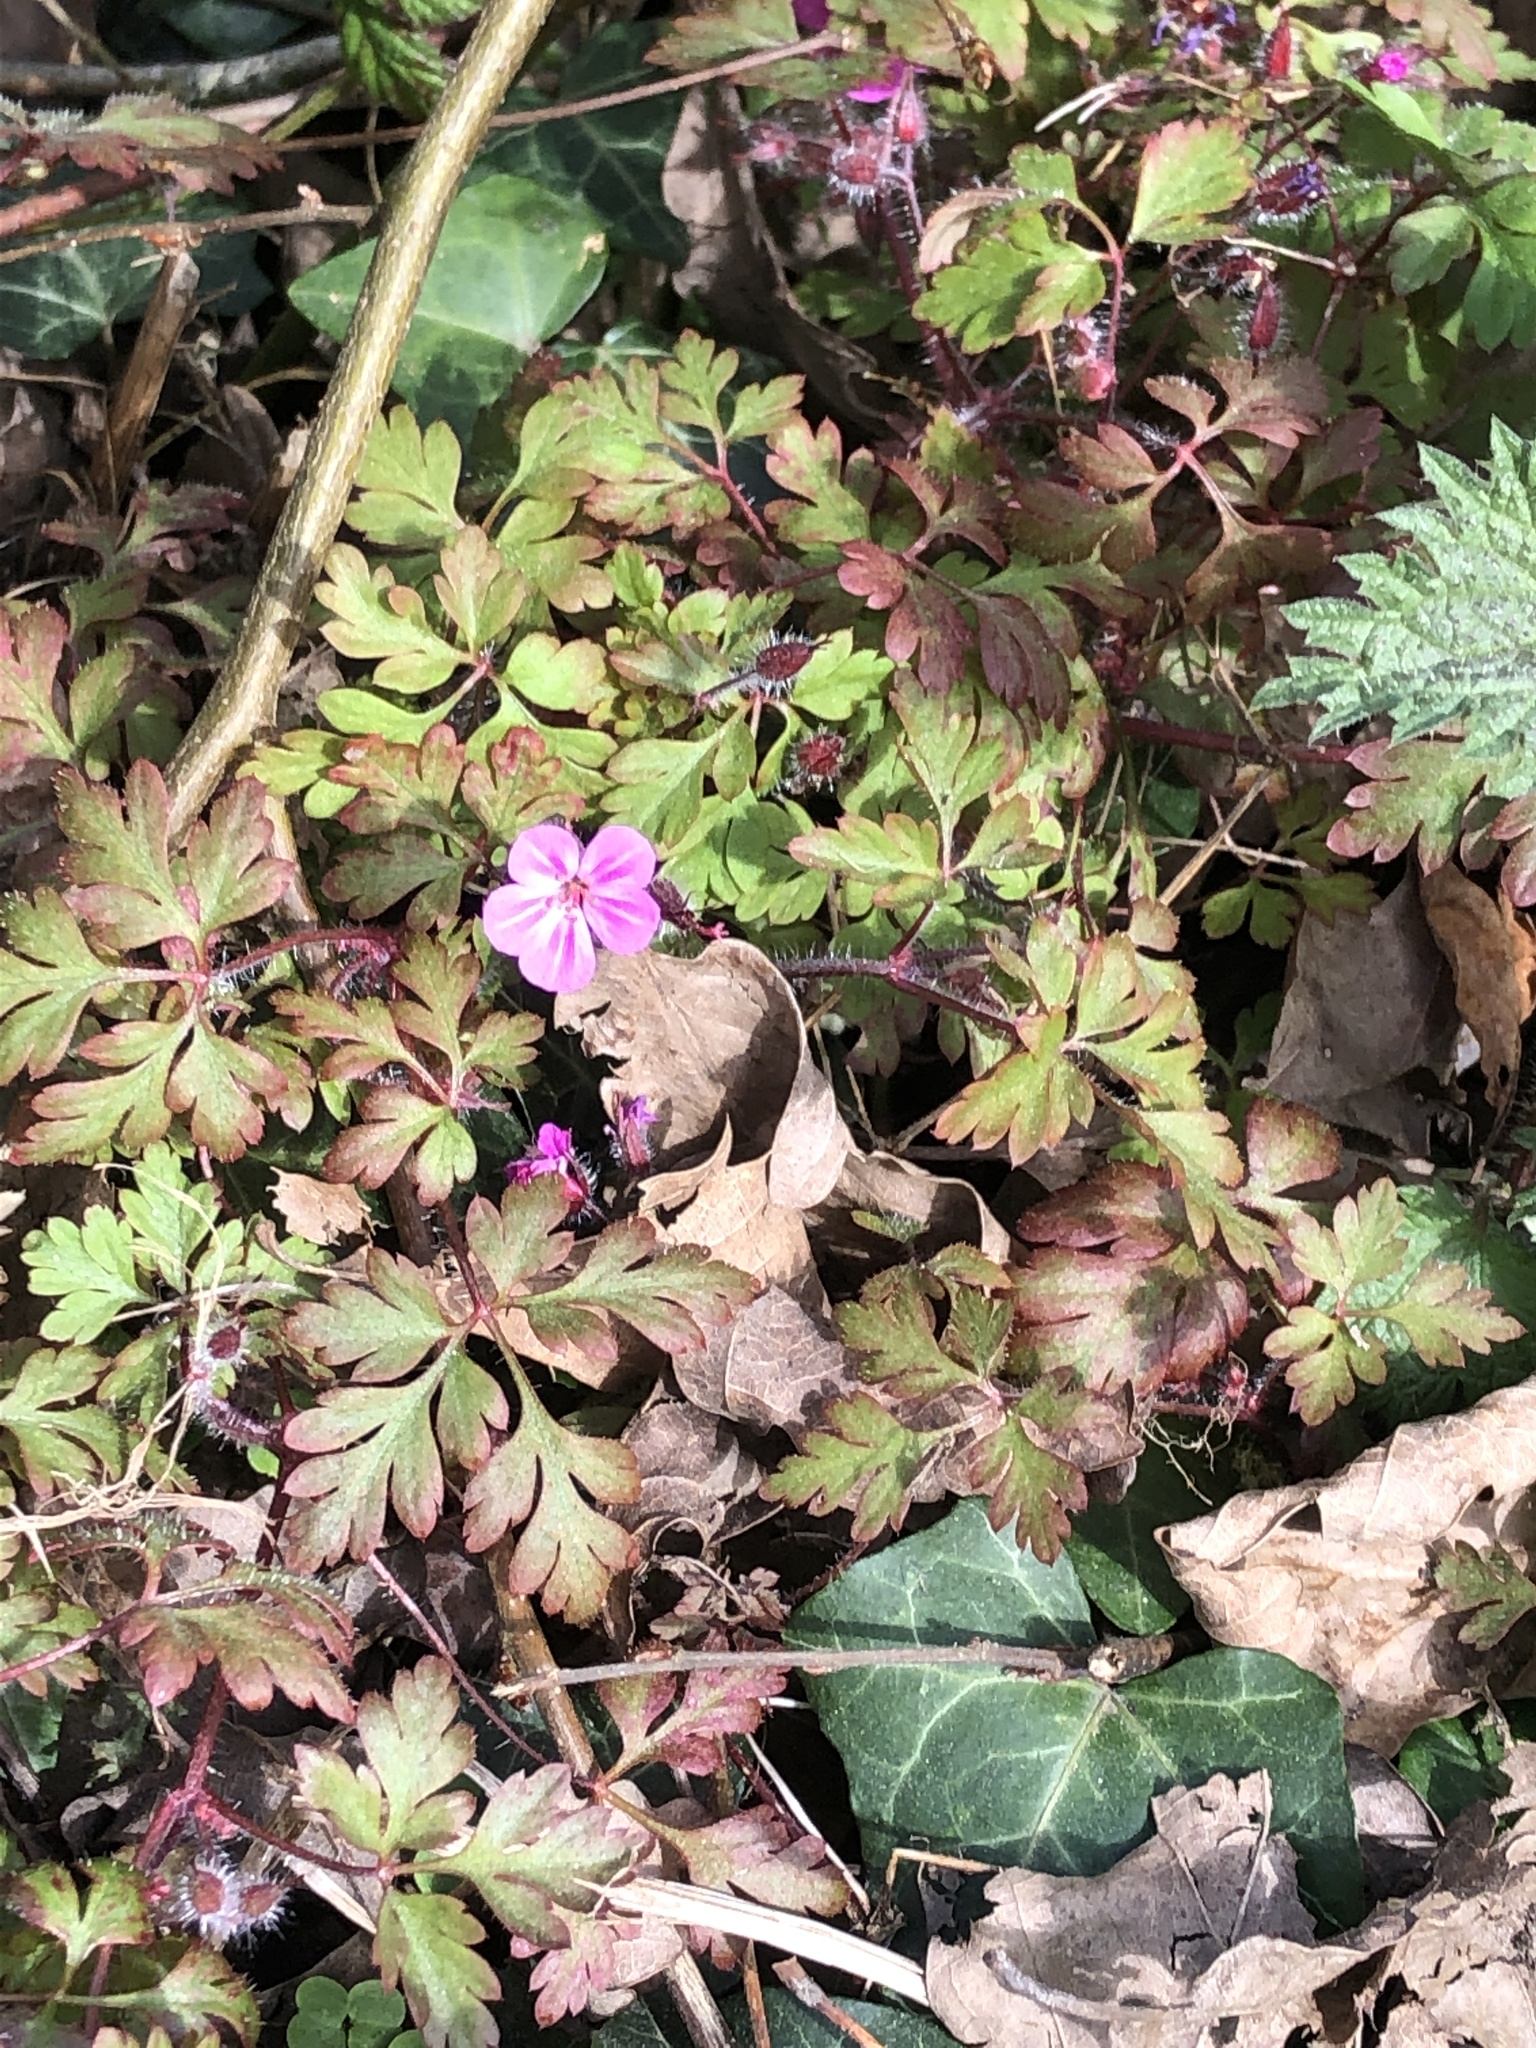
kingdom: Plantae
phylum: Tracheophyta
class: Magnoliopsida
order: Geraniales
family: Geraniaceae
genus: Geranium
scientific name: Geranium robertianum
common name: Herb-robert
